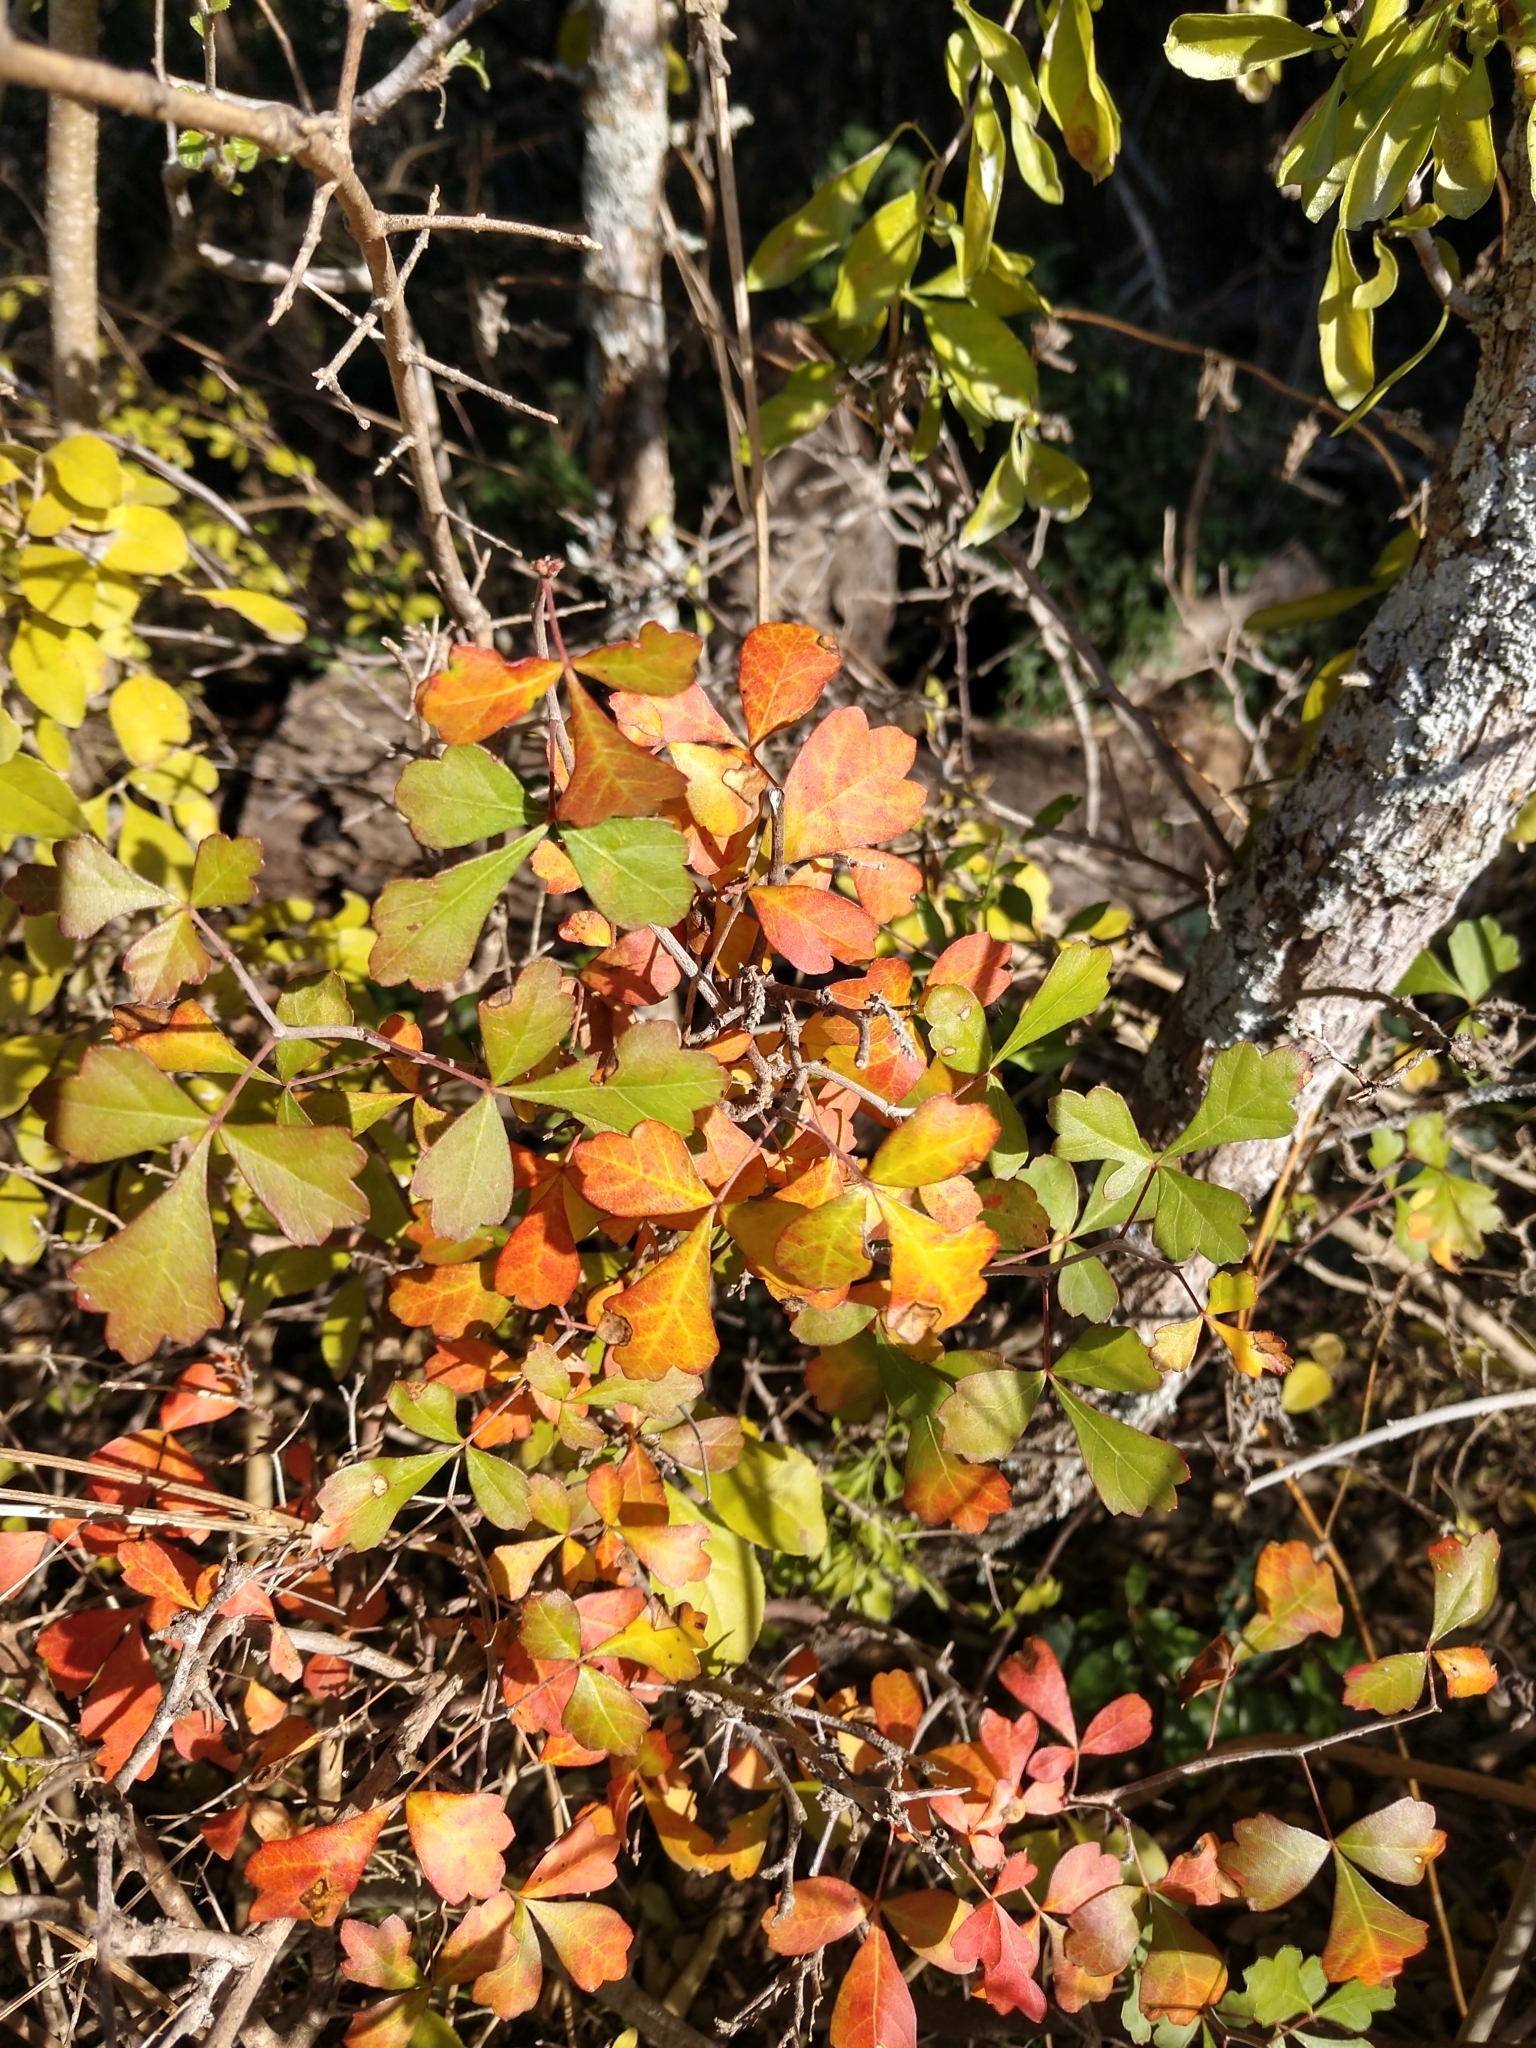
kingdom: Plantae
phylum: Tracheophyta
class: Magnoliopsida
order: Sapindales
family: Anacardiaceae
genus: Rhus
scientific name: Rhus aromatica
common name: Aromatic sumac
